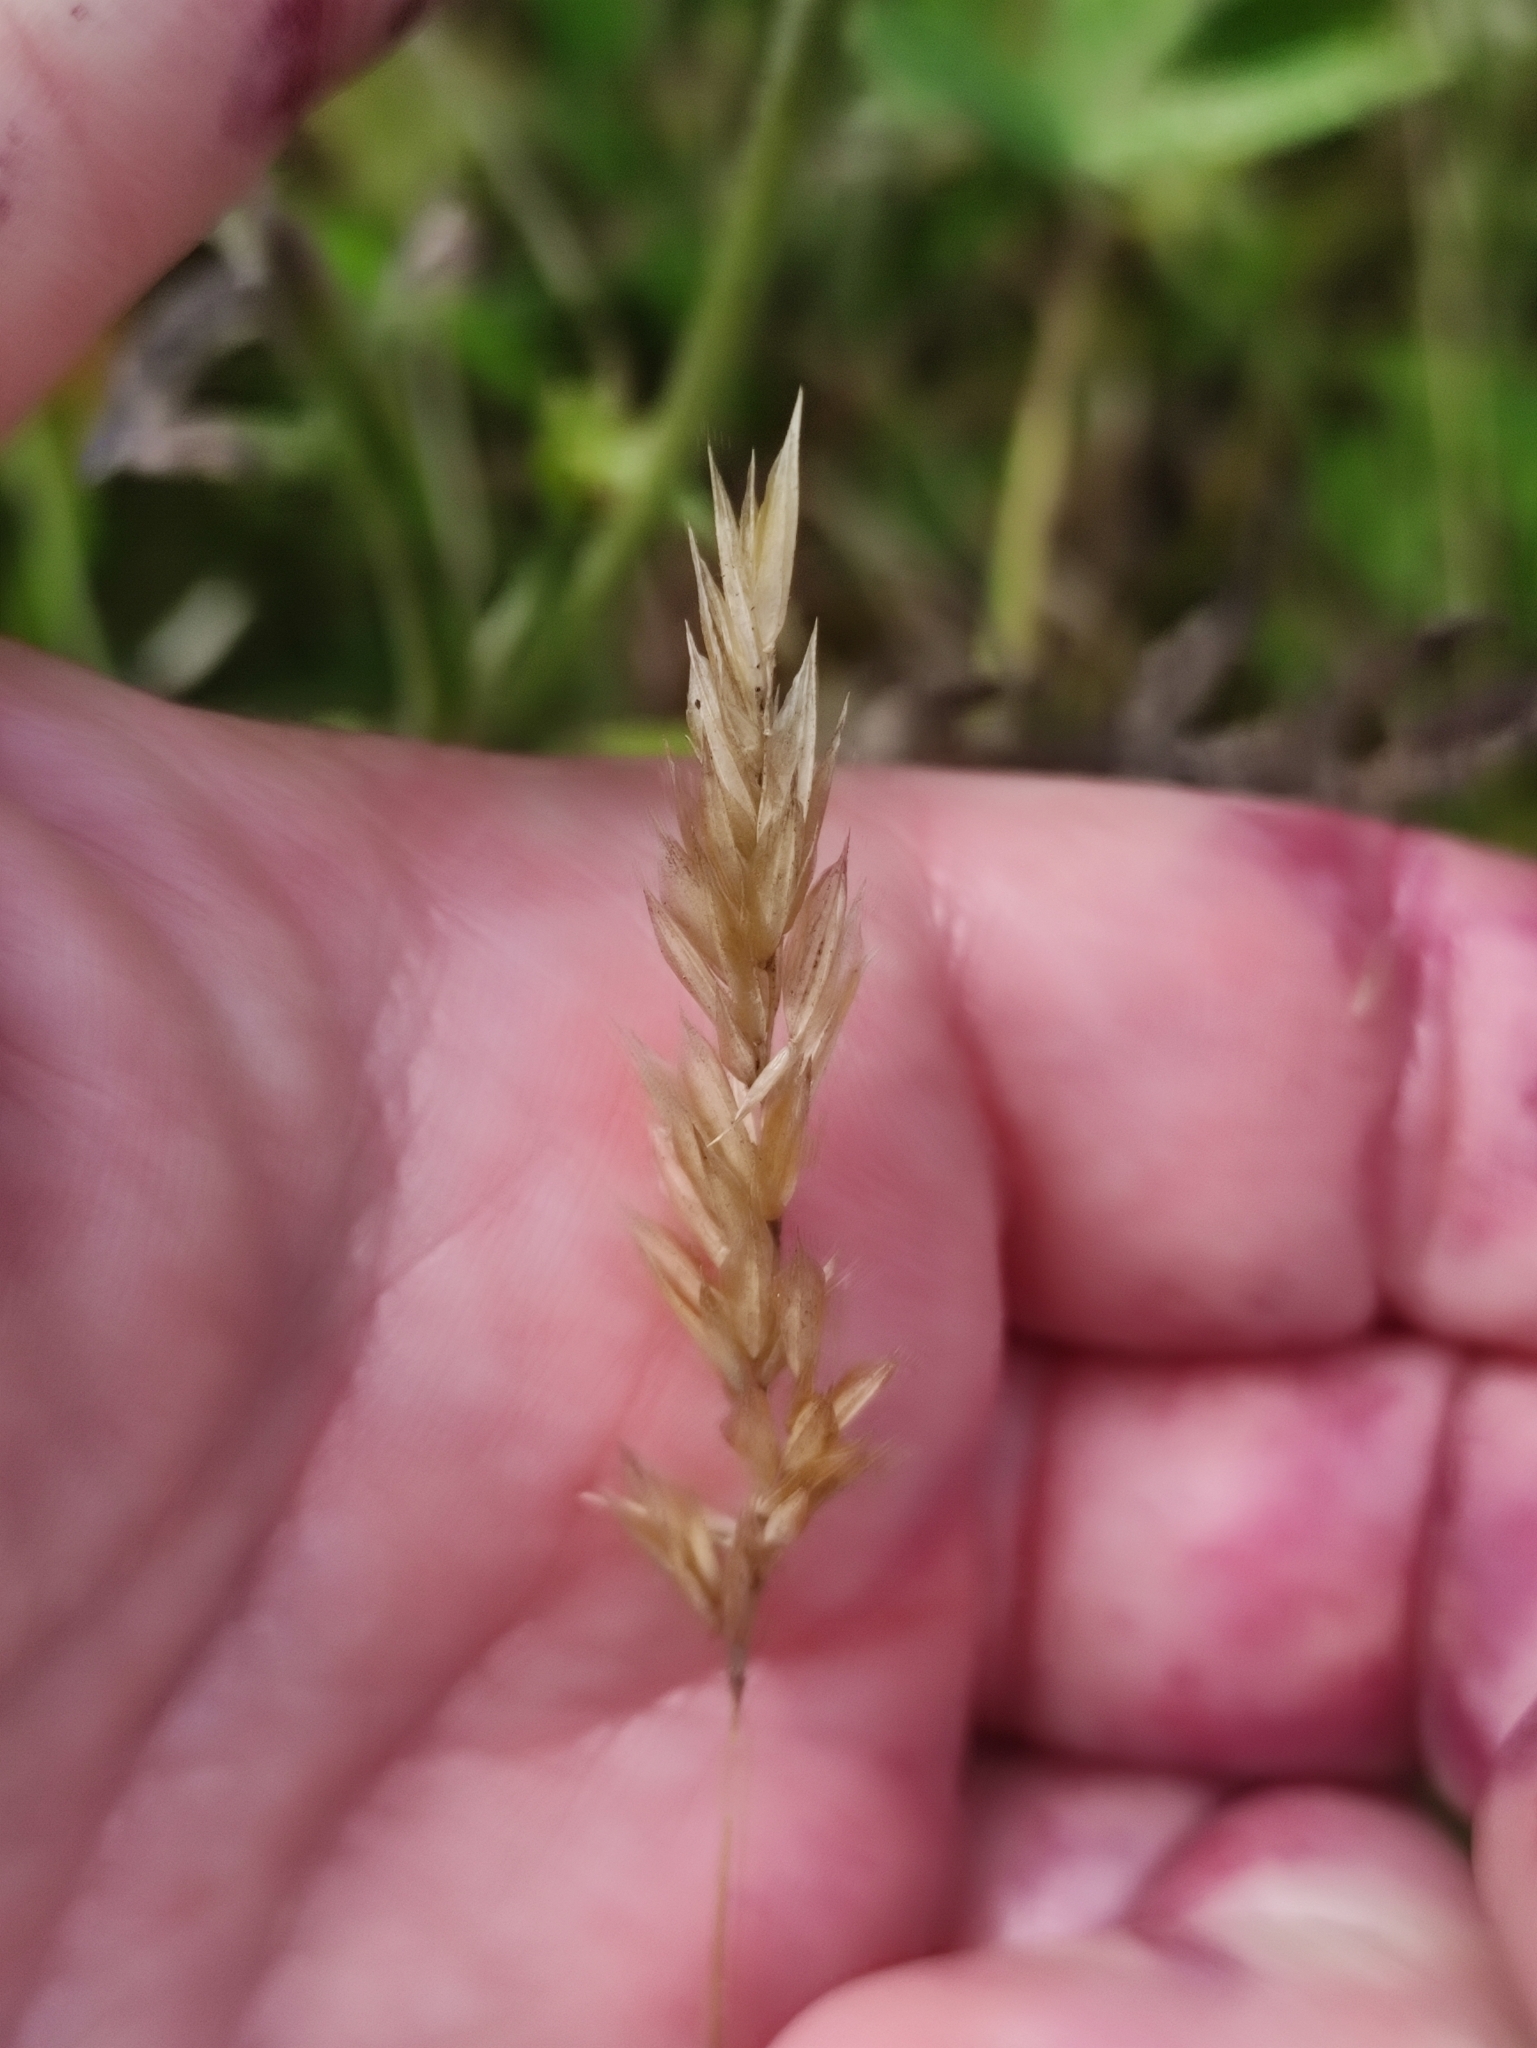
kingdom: Plantae
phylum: Tracheophyta
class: Liliopsida
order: Poales
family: Poaceae
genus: Anthoxanthum
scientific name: Anthoxanthum odoratum
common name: Sweet vernalgrass
